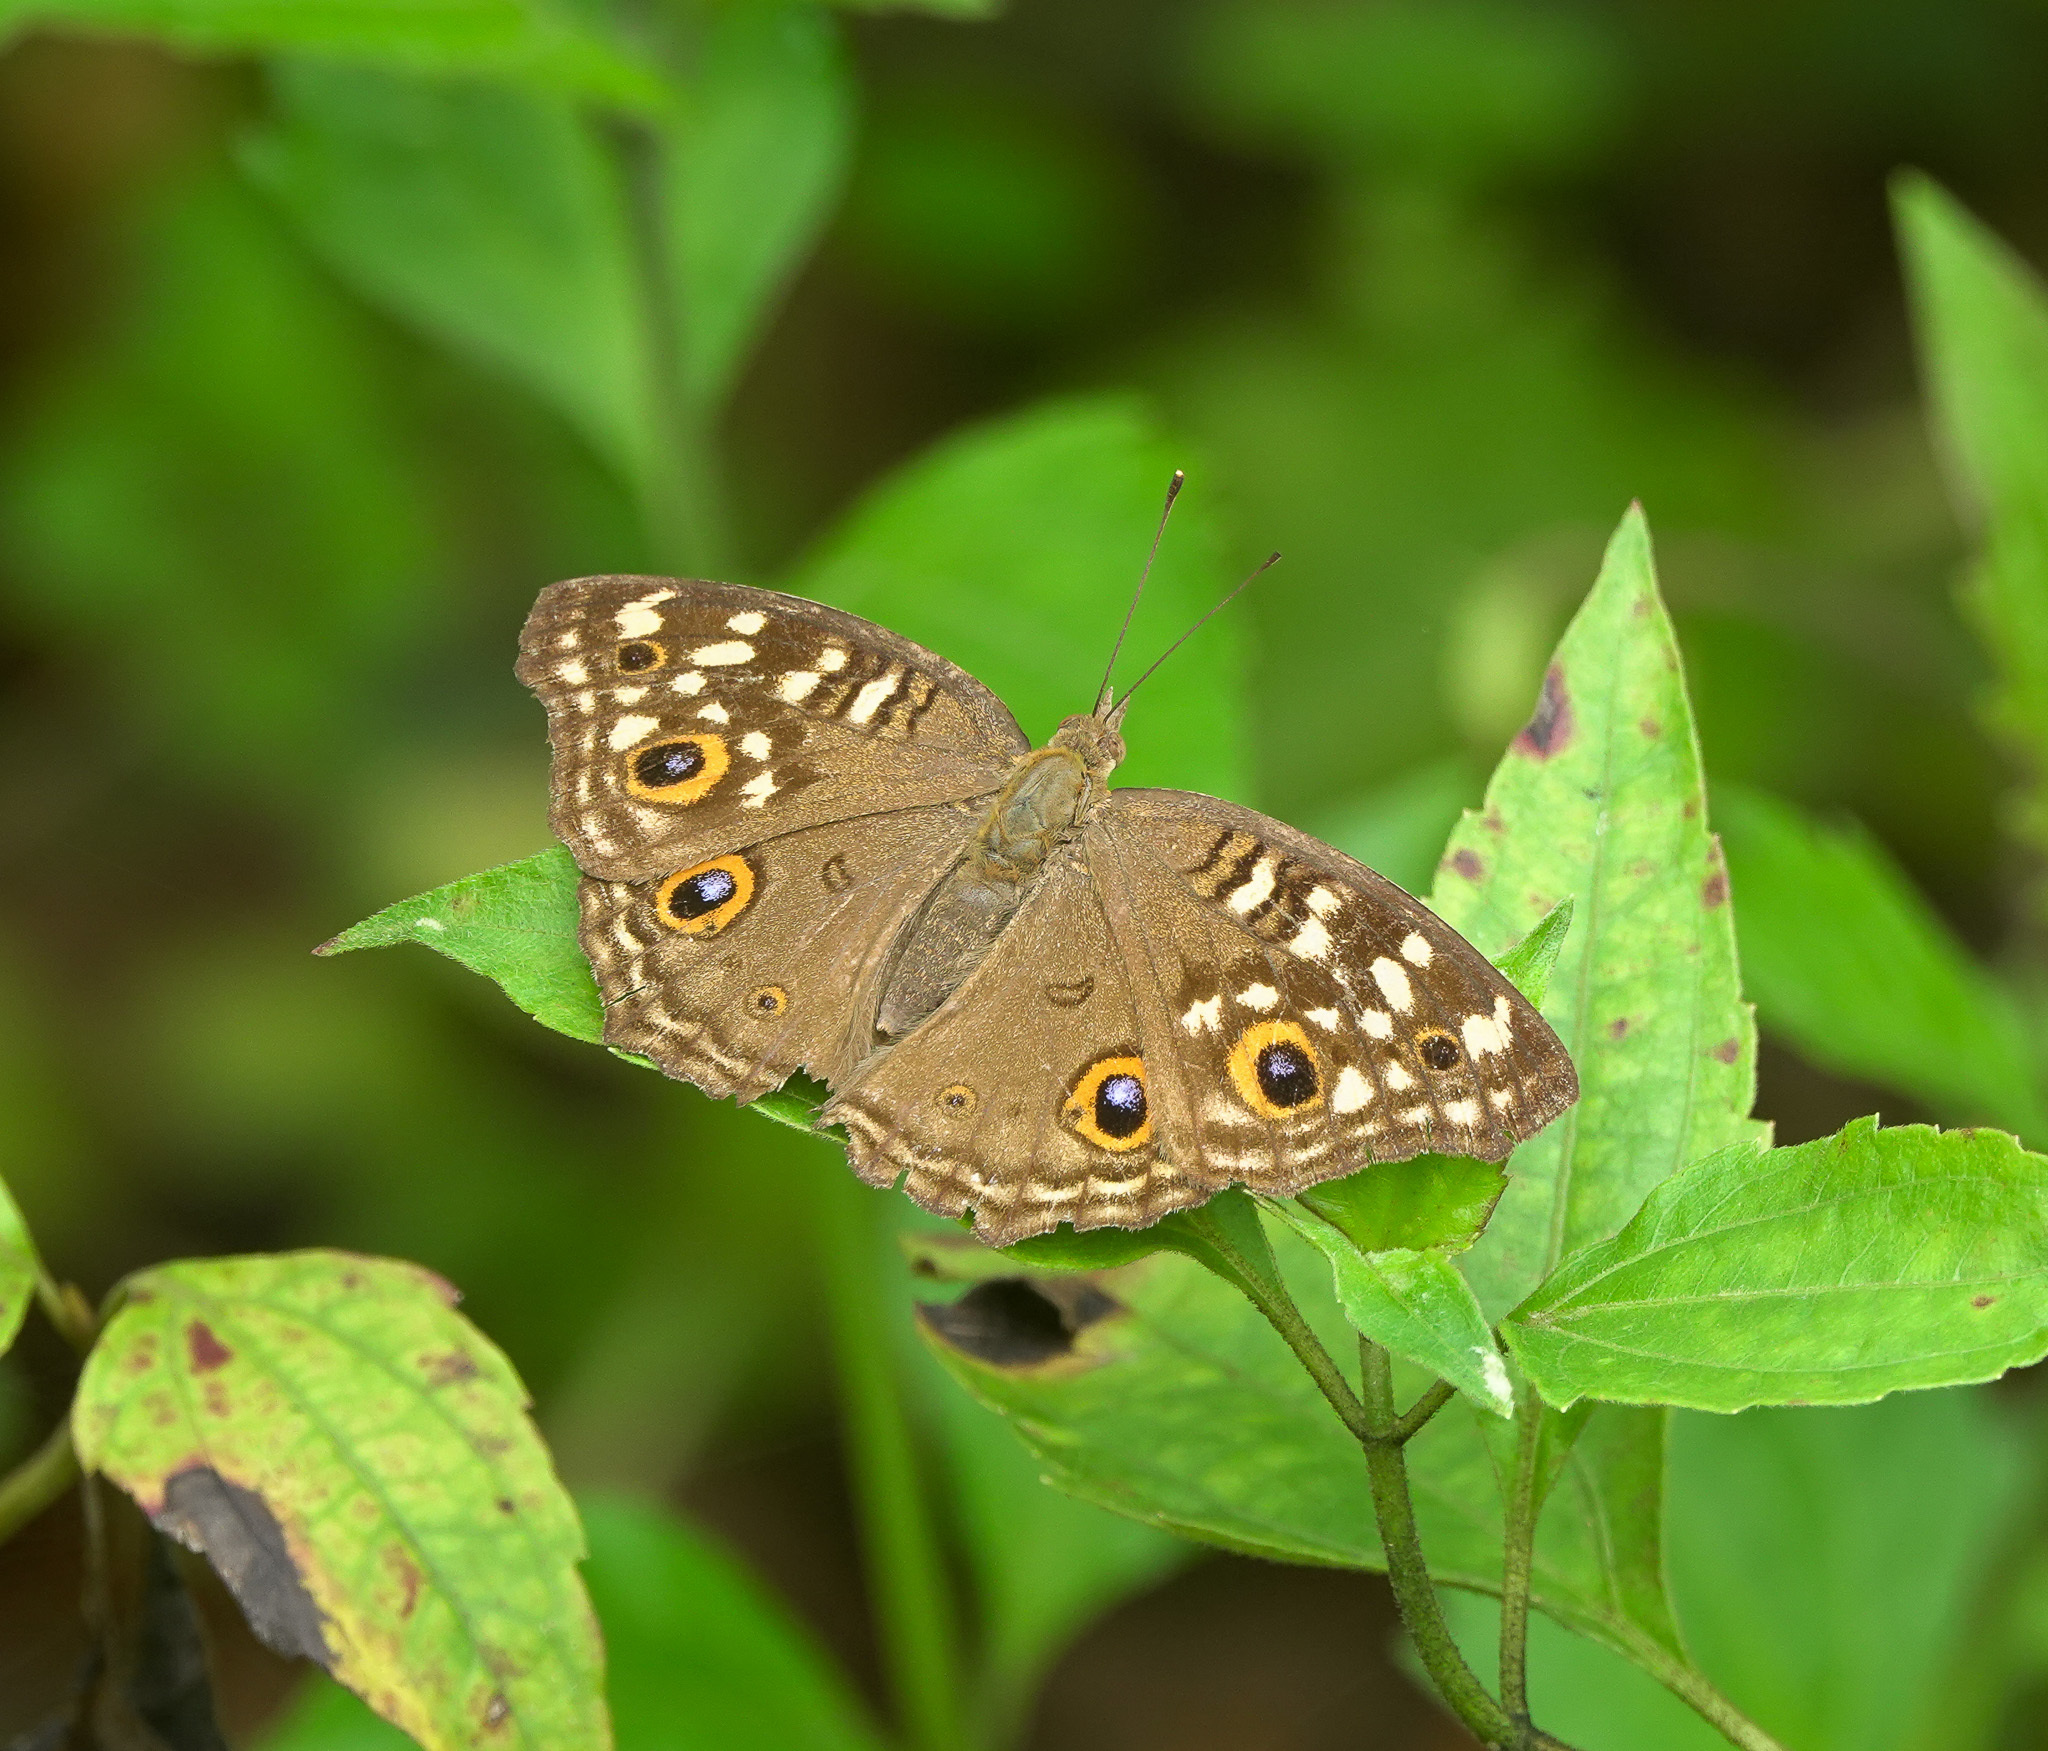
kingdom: Animalia
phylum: Arthropoda
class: Insecta
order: Lepidoptera
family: Nymphalidae
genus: Junonia
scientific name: Junonia lemonias
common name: Lemon pansy
